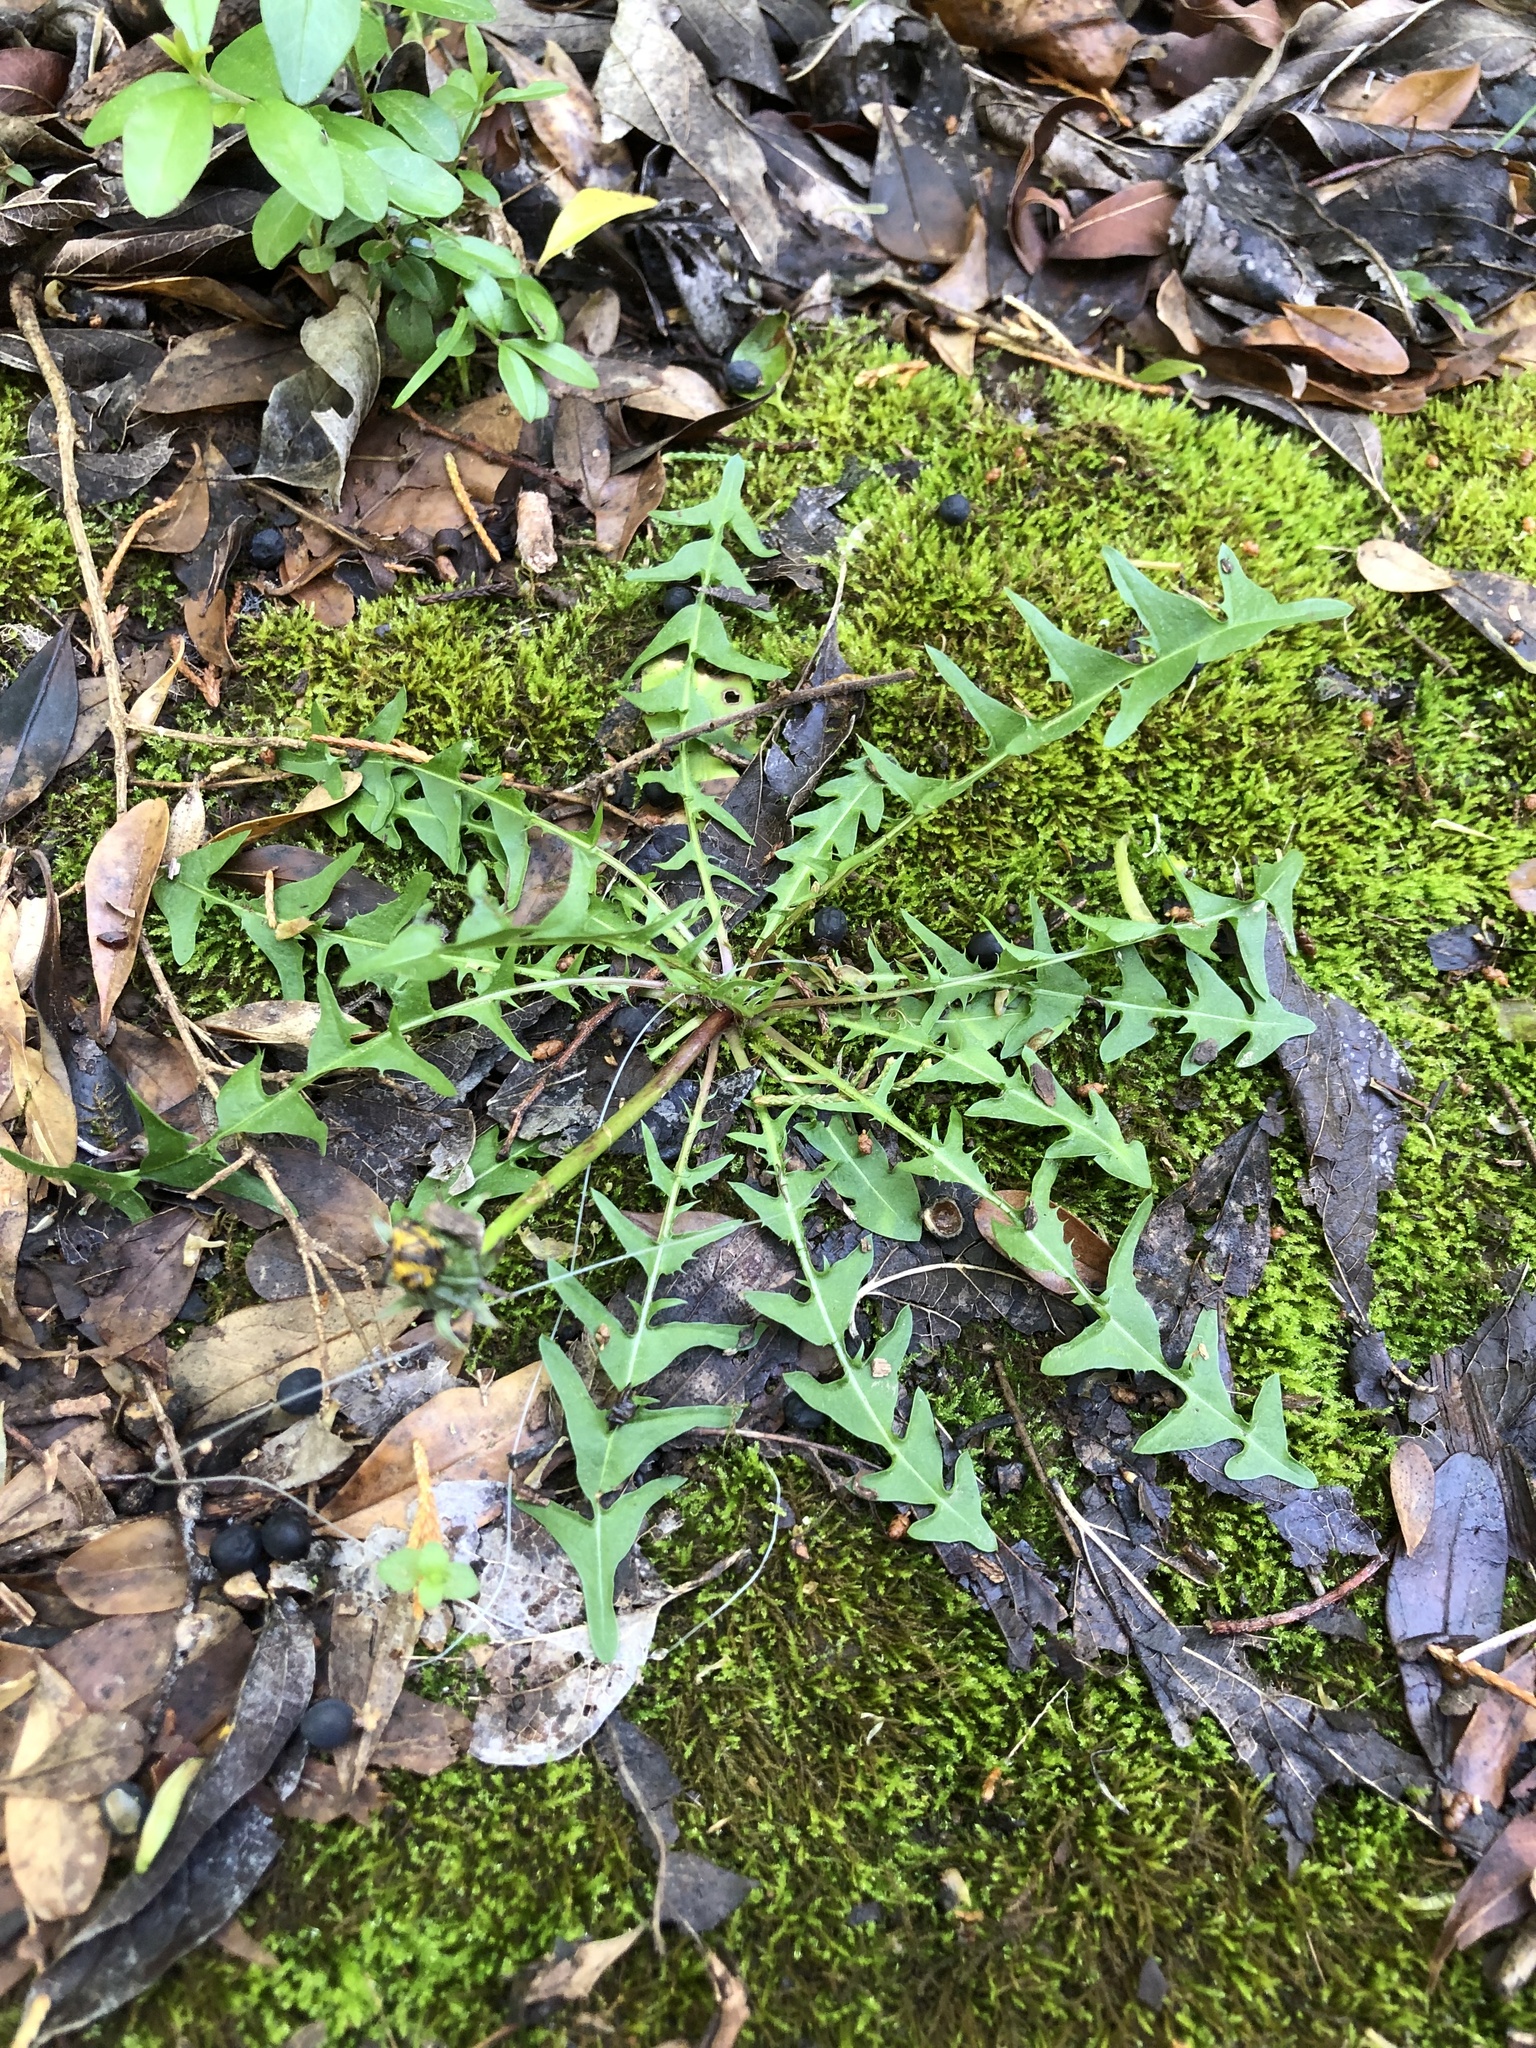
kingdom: Plantae
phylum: Tracheophyta
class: Magnoliopsida
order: Asterales
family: Asteraceae
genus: Taraxacum
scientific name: Taraxacum
